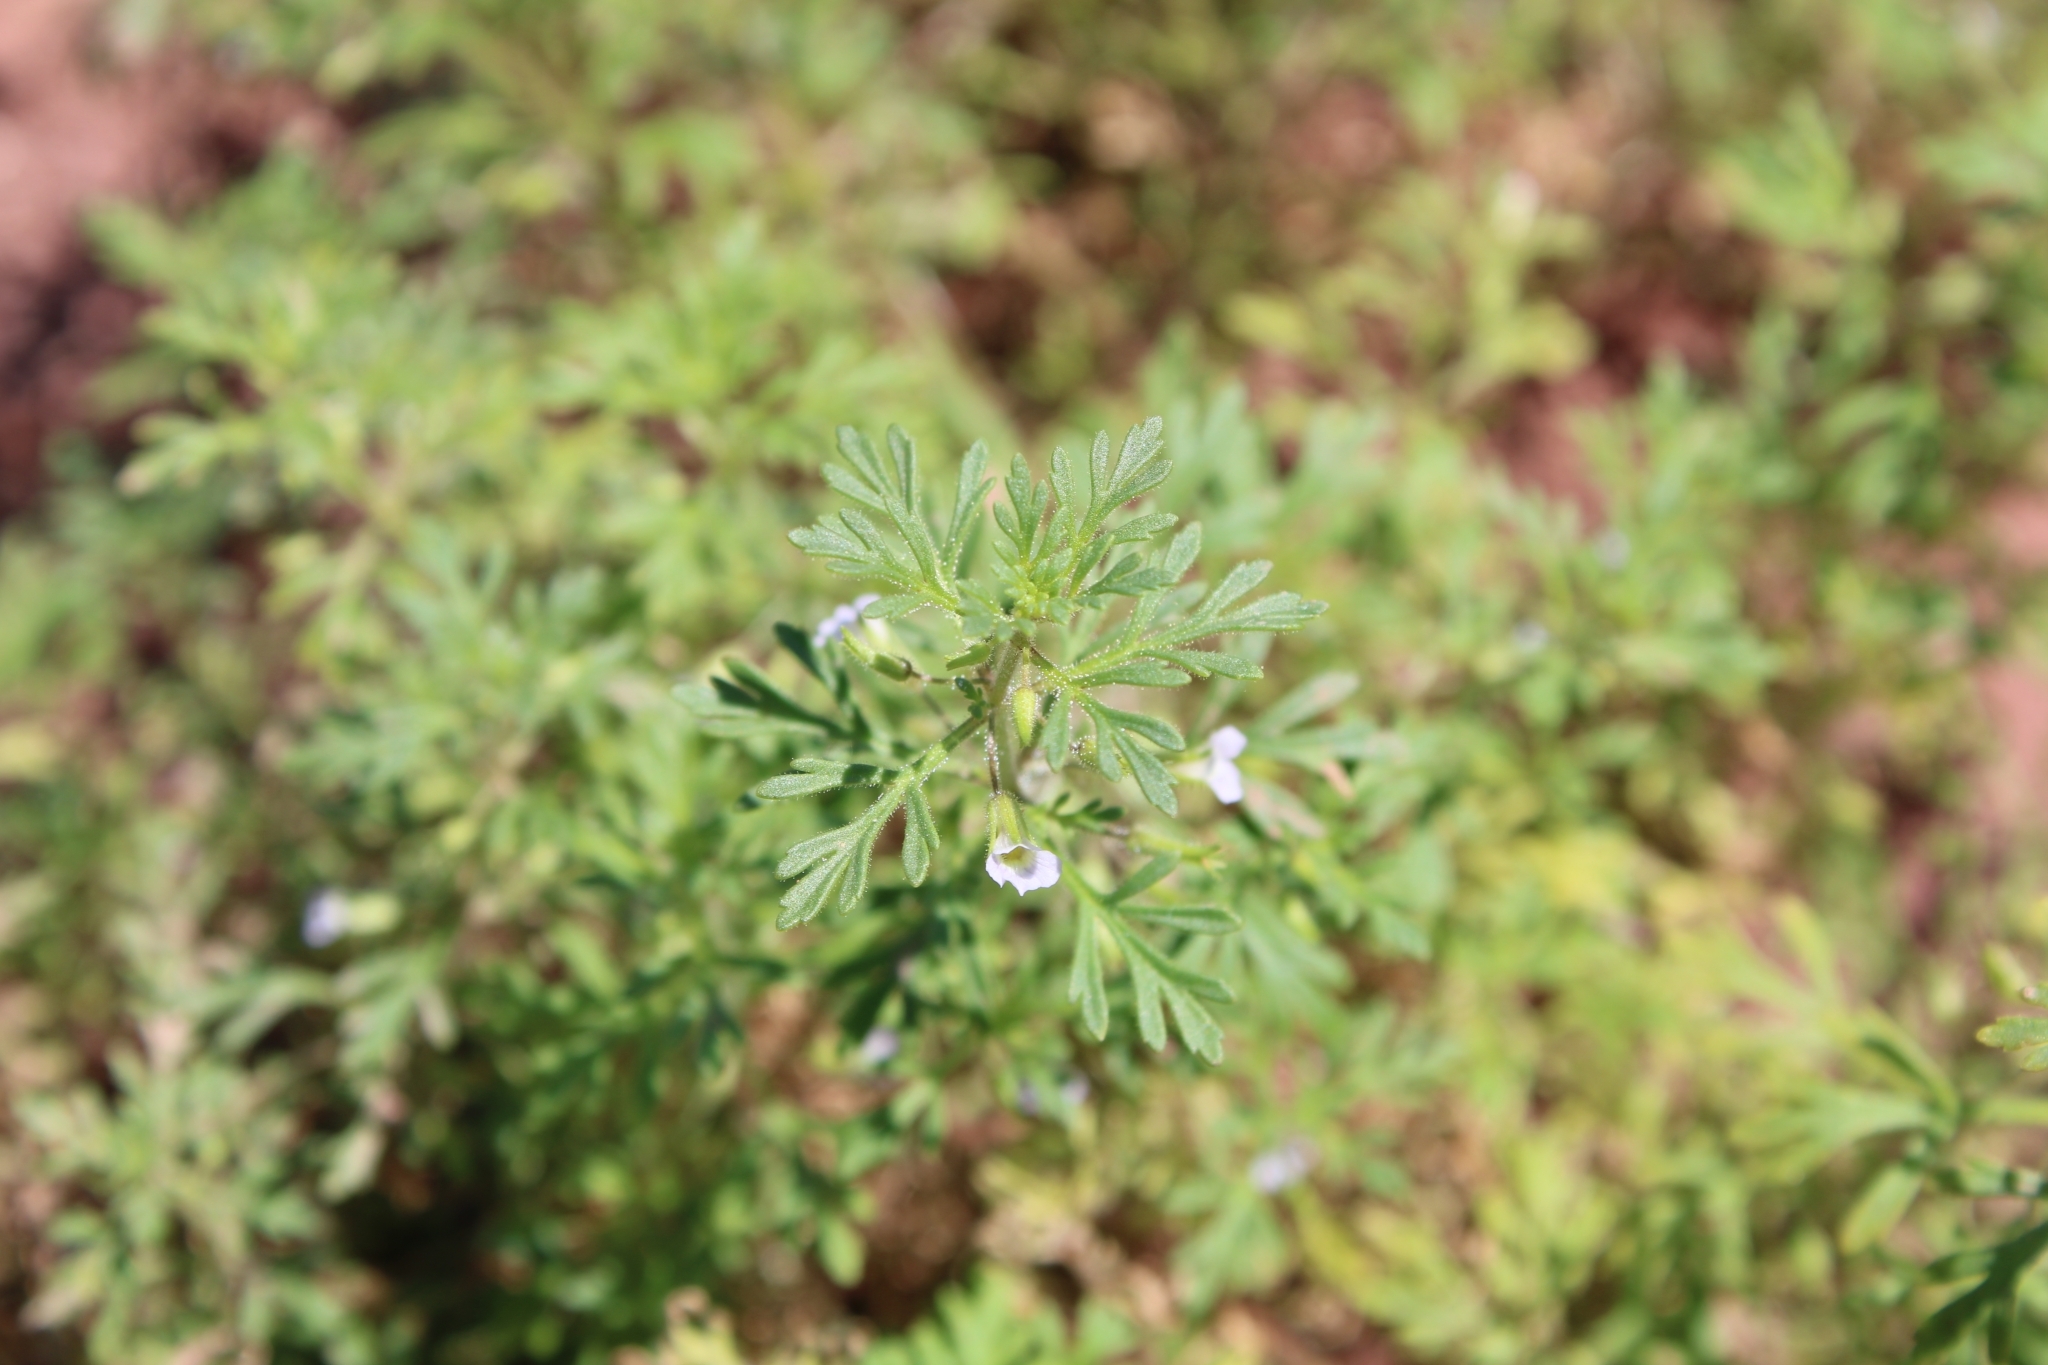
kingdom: Plantae
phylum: Tracheophyta
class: Magnoliopsida
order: Lamiales
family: Plantaginaceae
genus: Leucospora
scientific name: Leucospora multifida
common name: Narrow-leaf paleseed
